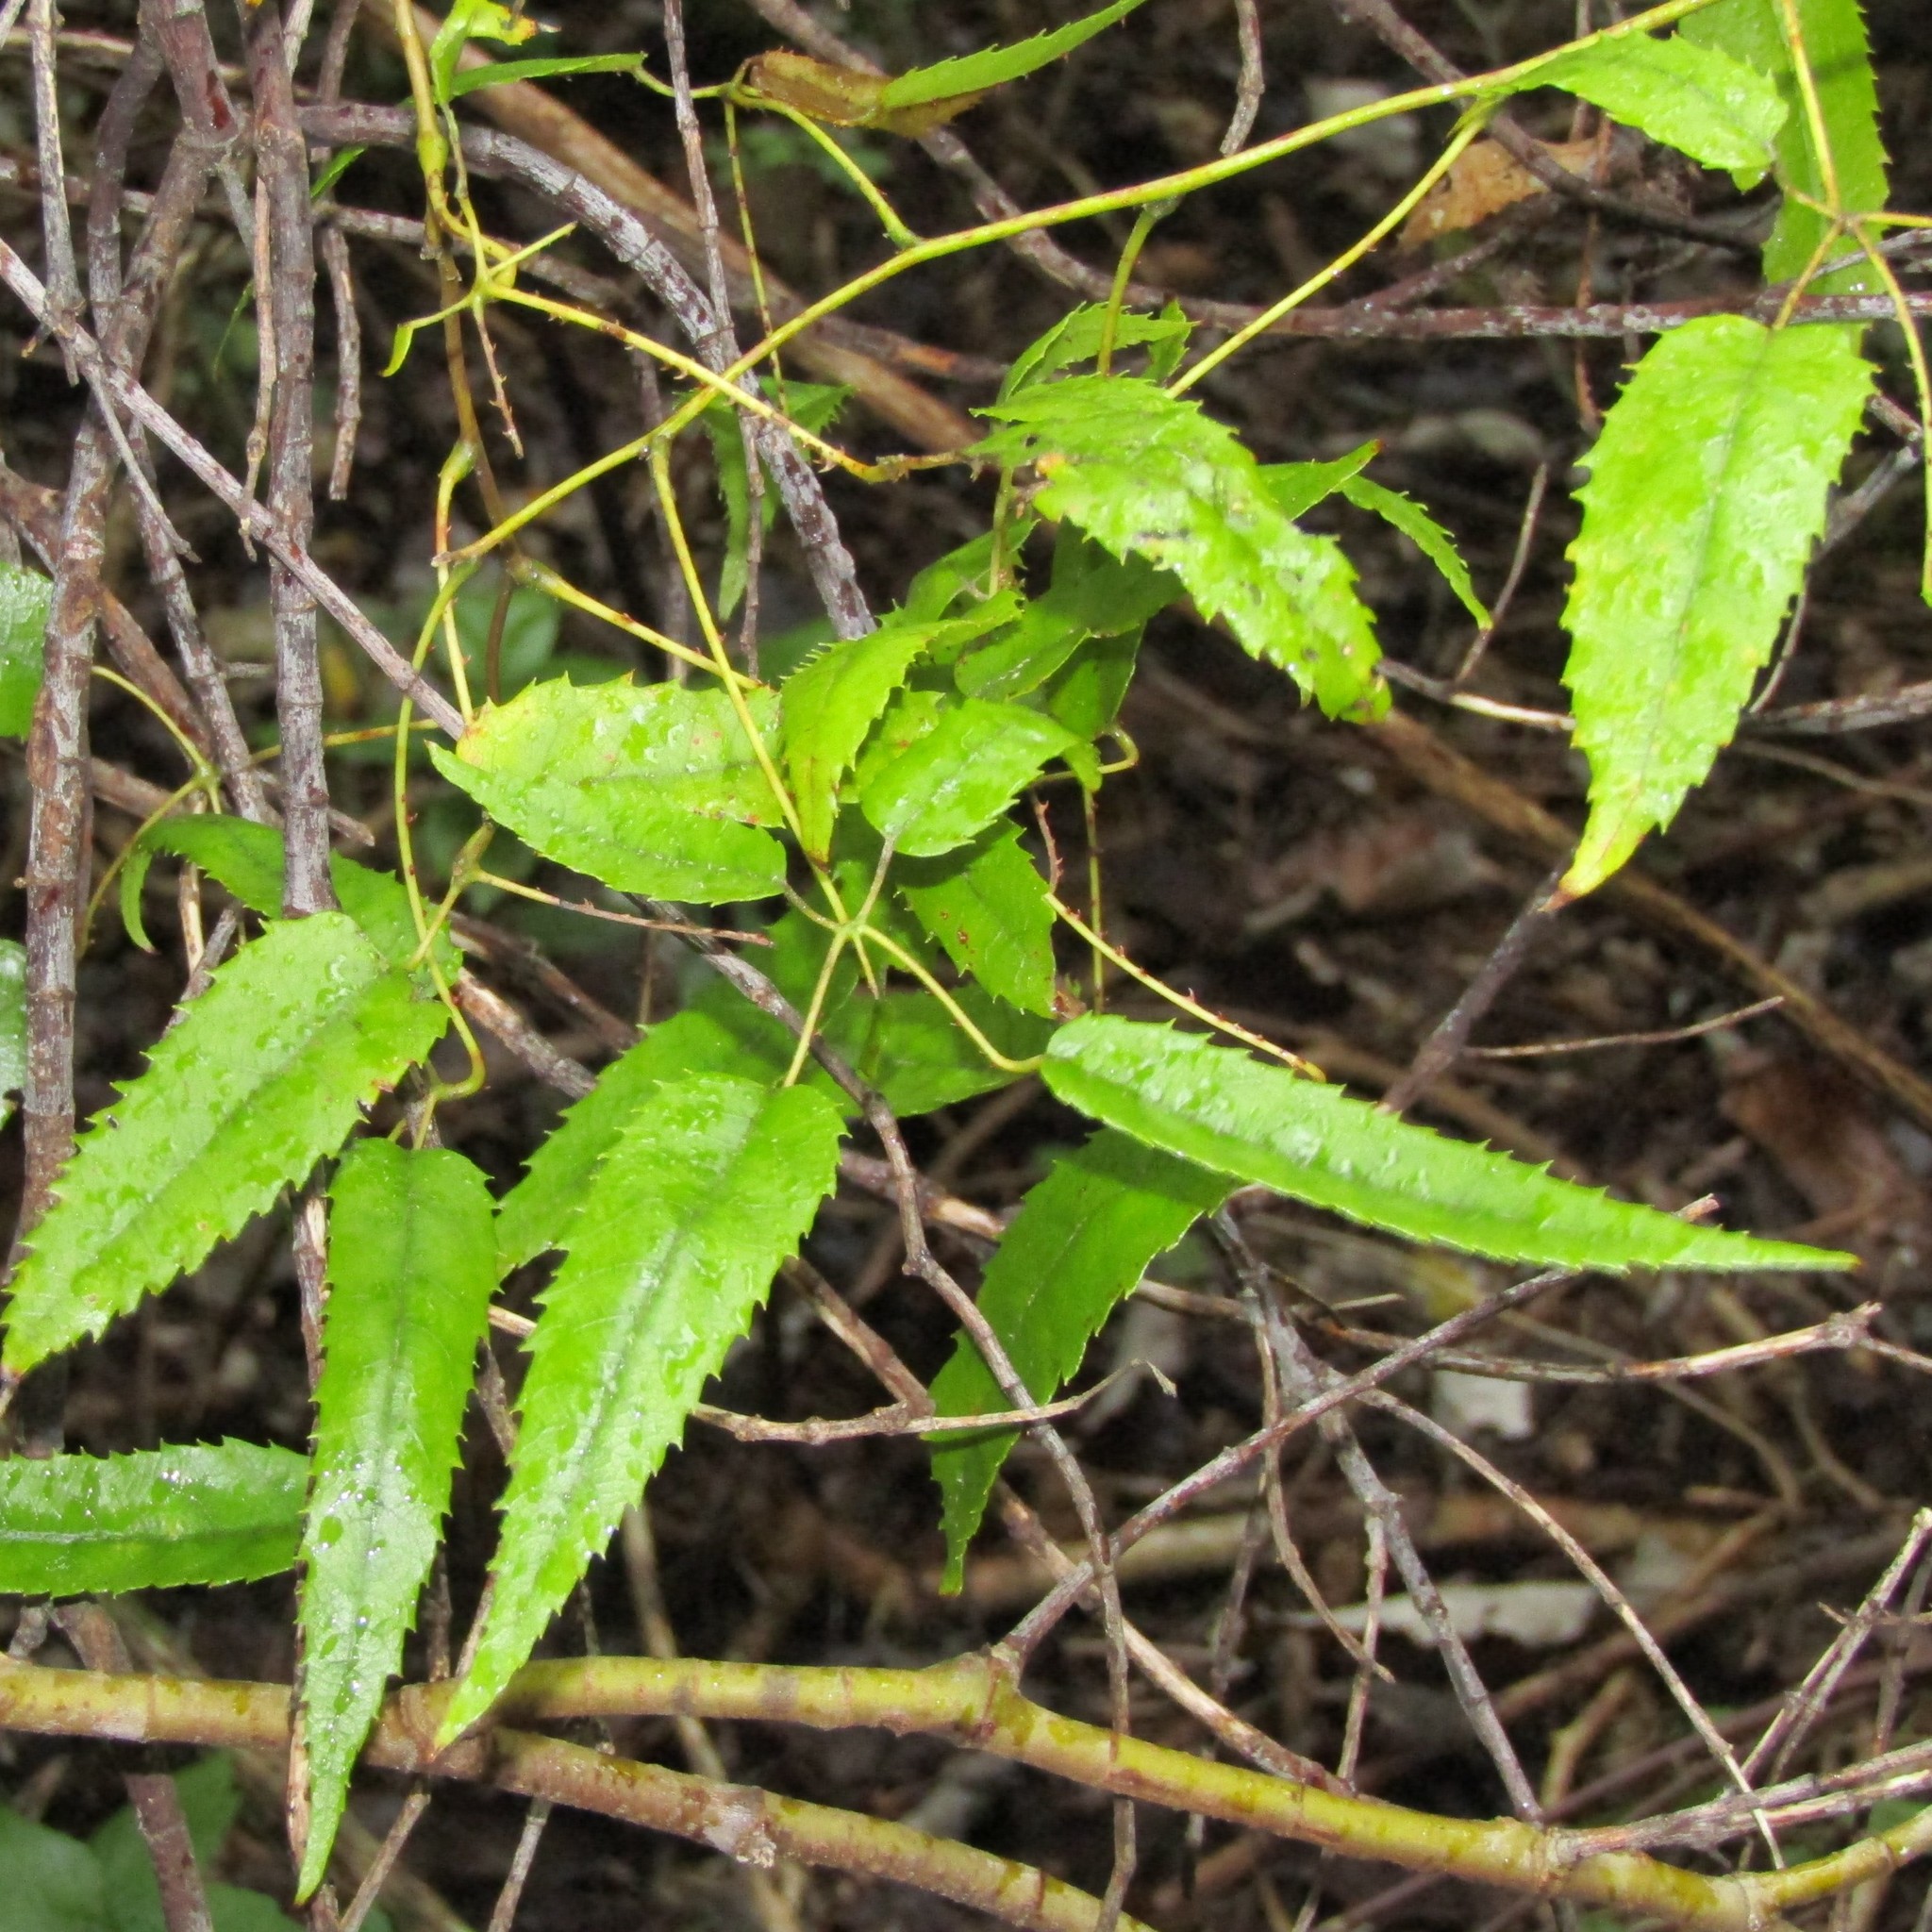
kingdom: Plantae
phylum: Tracheophyta
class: Magnoliopsida
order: Rosales
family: Rosaceae
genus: Rubus
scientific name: Rubus cissoides
